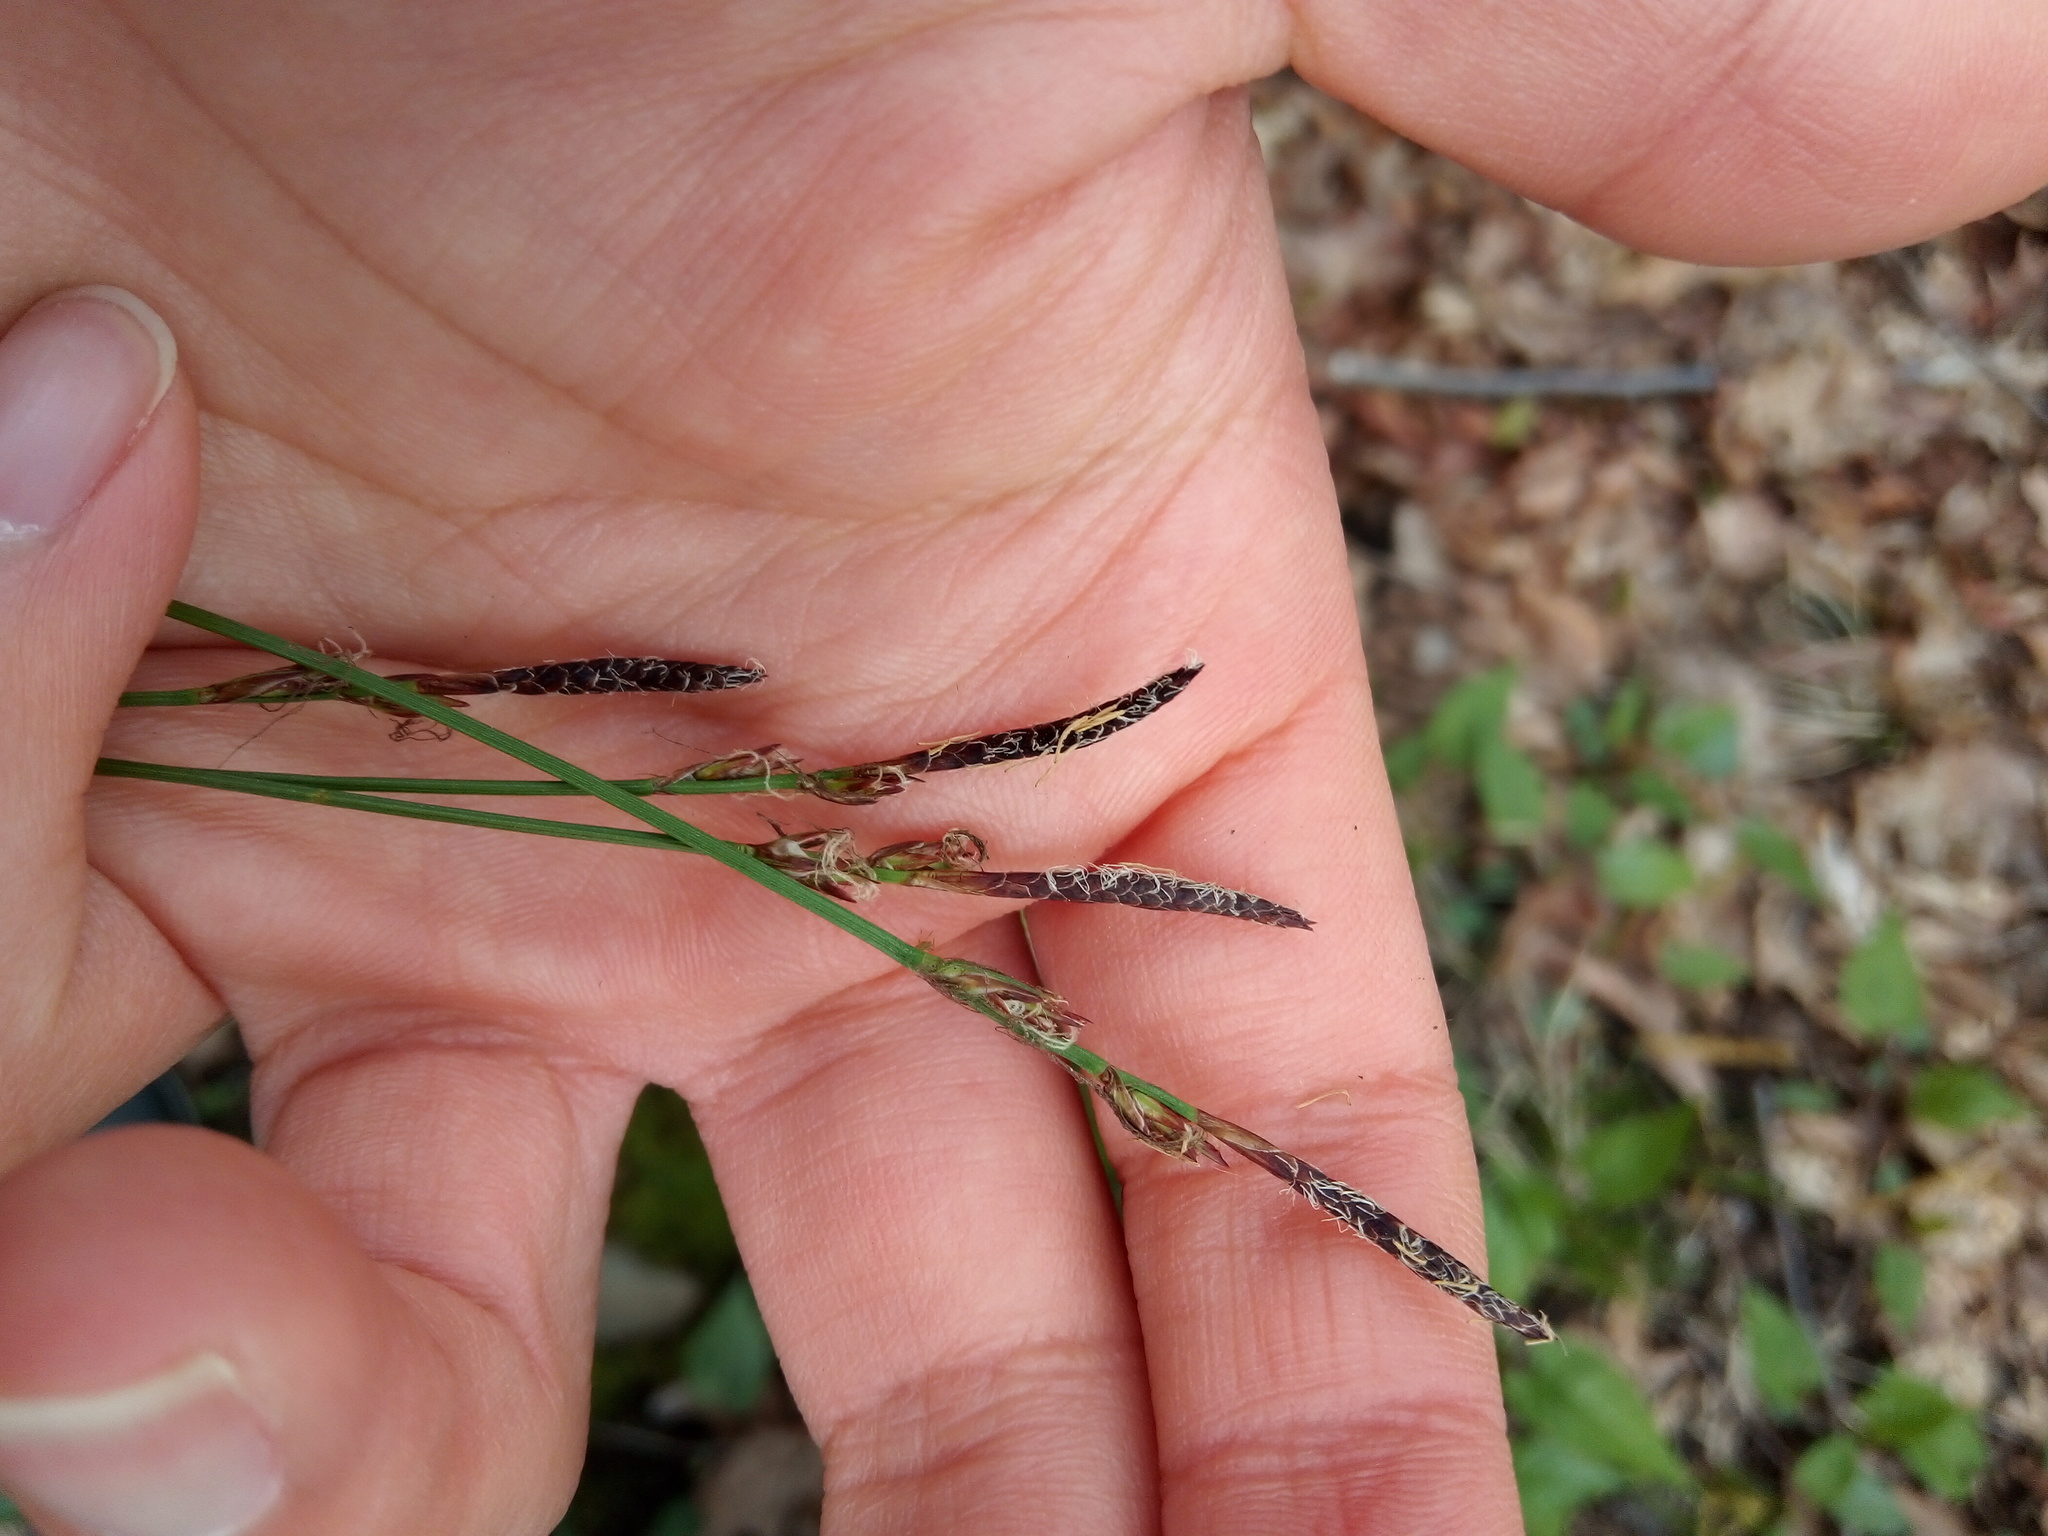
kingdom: Plantae
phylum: Tracheophyta
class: Liliopsida
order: Poales
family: Cyperaceae
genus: Carex
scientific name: Carex pensylvanica
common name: Common oak sedge
